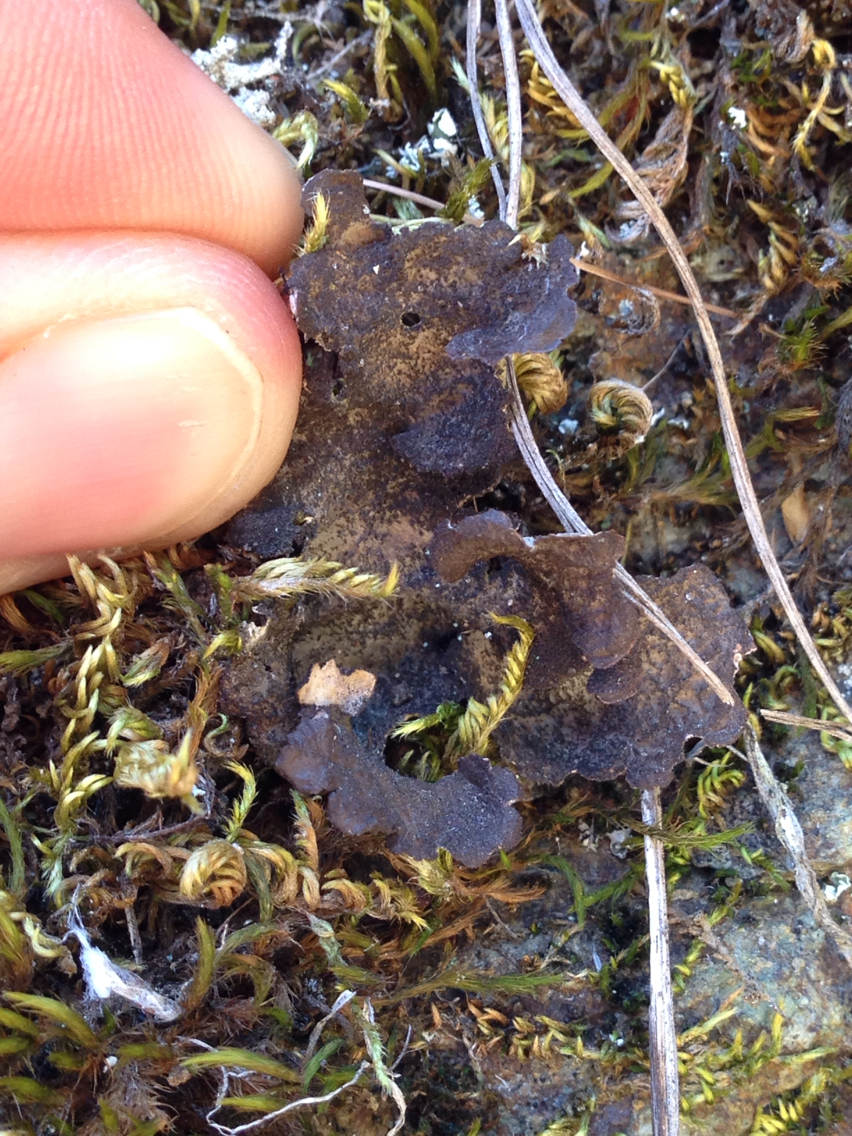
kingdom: Fungi
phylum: Ascomycota
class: Lecanoromycetes
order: Peltigerales
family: Lobariaceae
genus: Sticta
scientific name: Sticta fuliginosa
